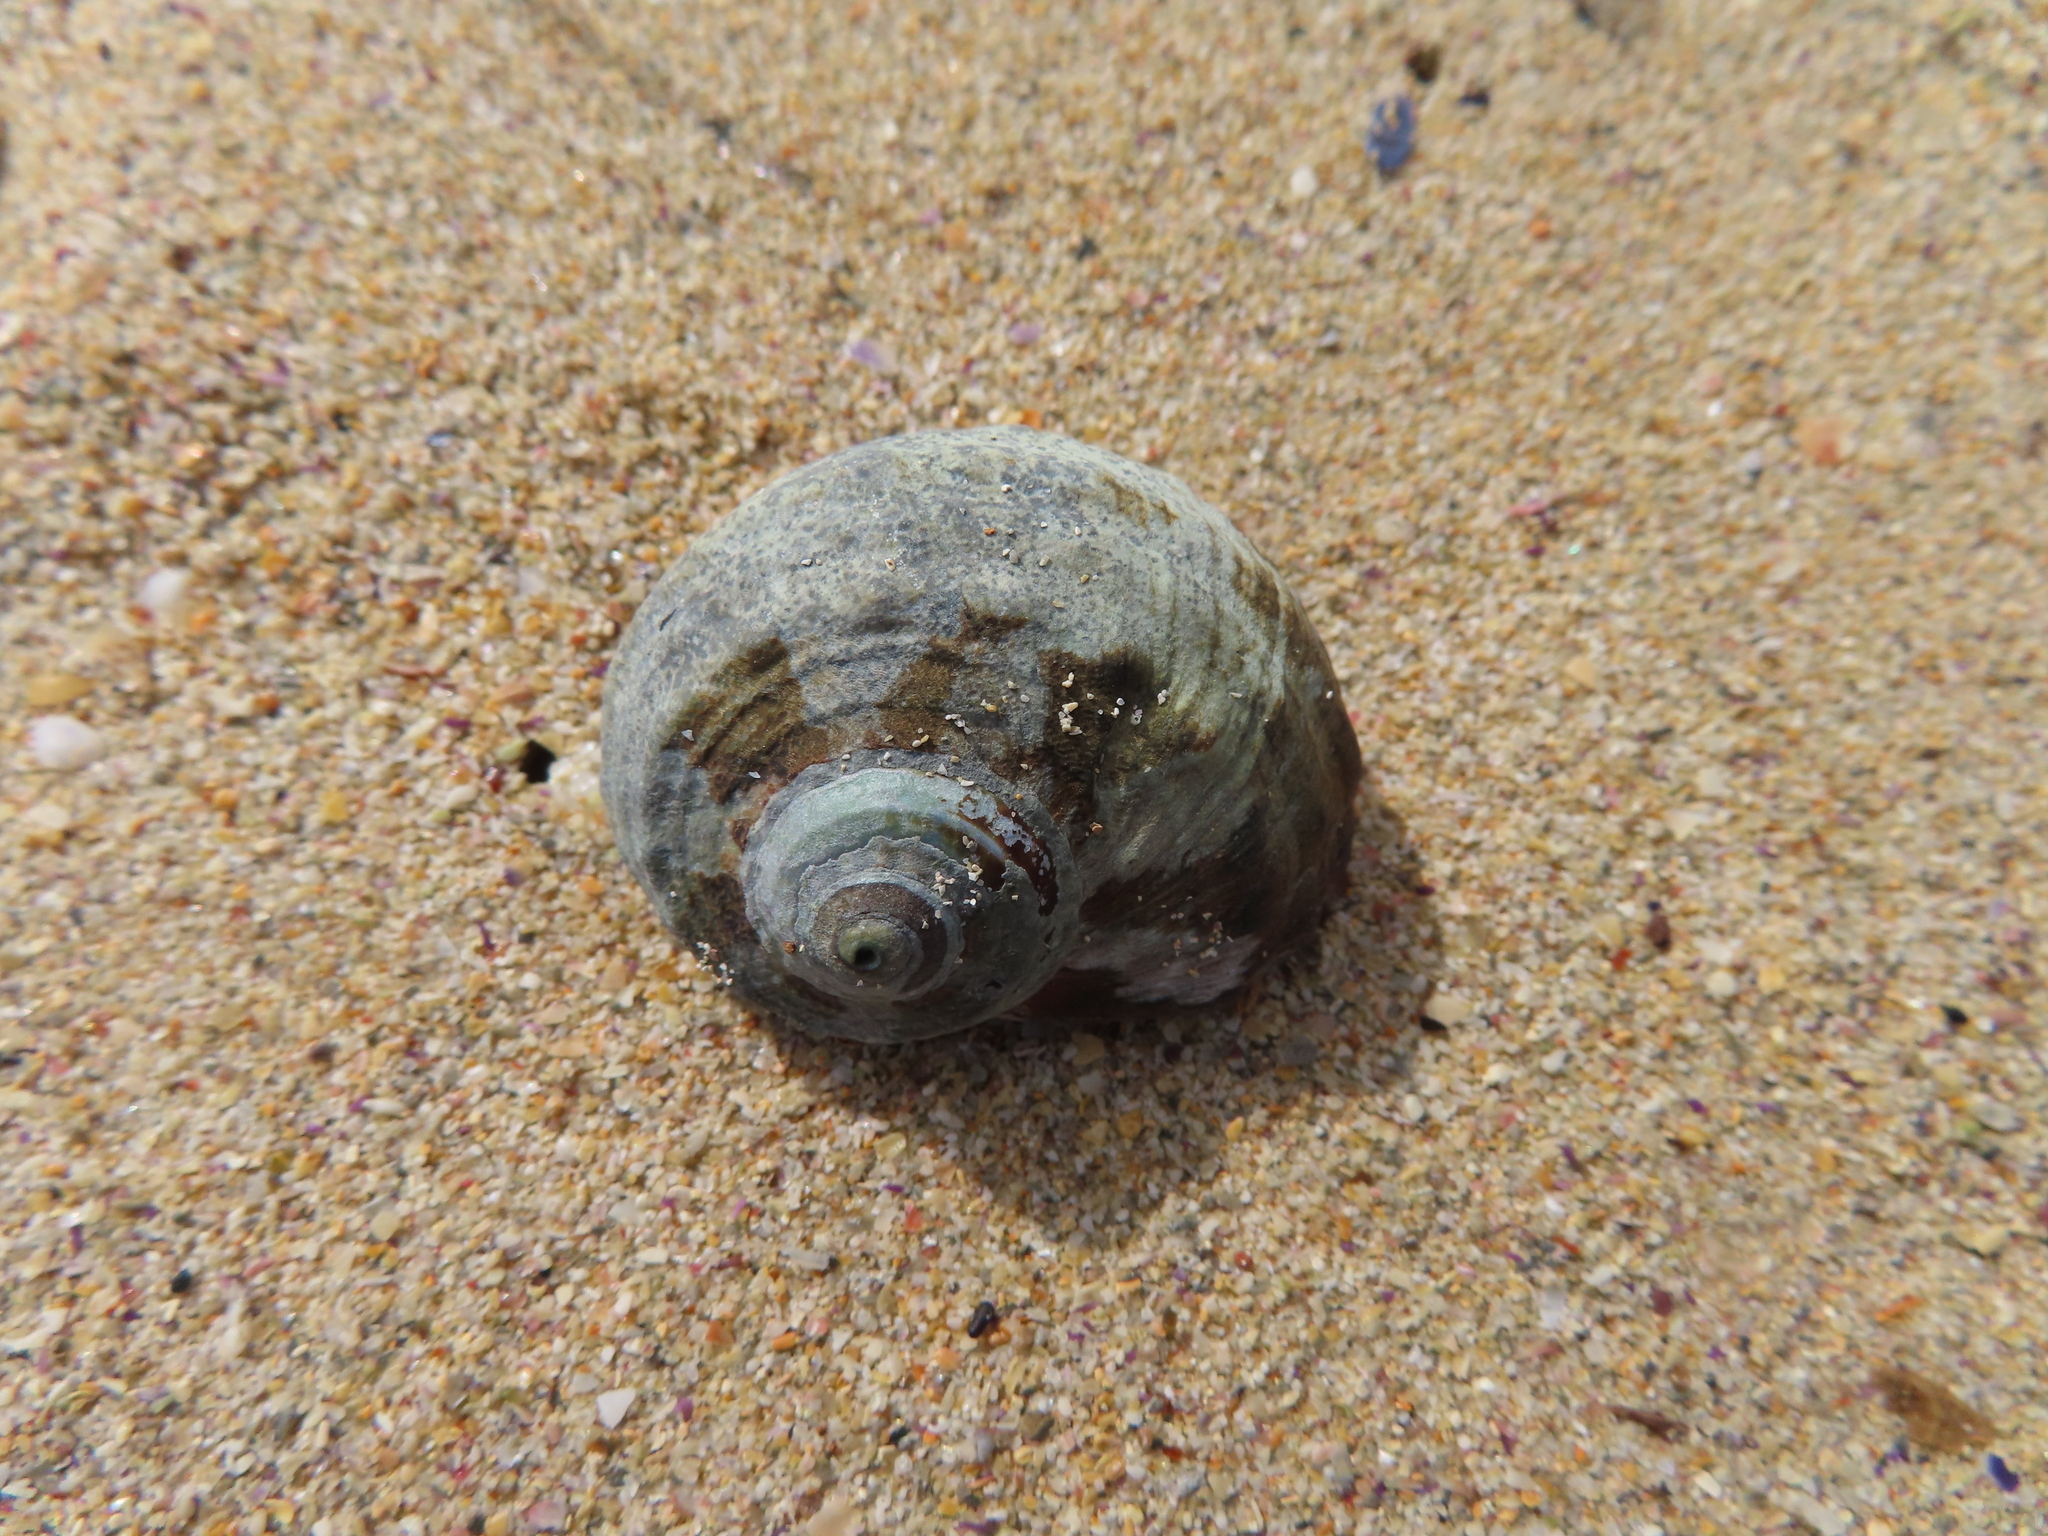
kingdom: Animalia
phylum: Mollusca
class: Gastropoda
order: Trochida
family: Turbinidae
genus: Turbo
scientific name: Turbo sarmaticus
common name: South african turban
